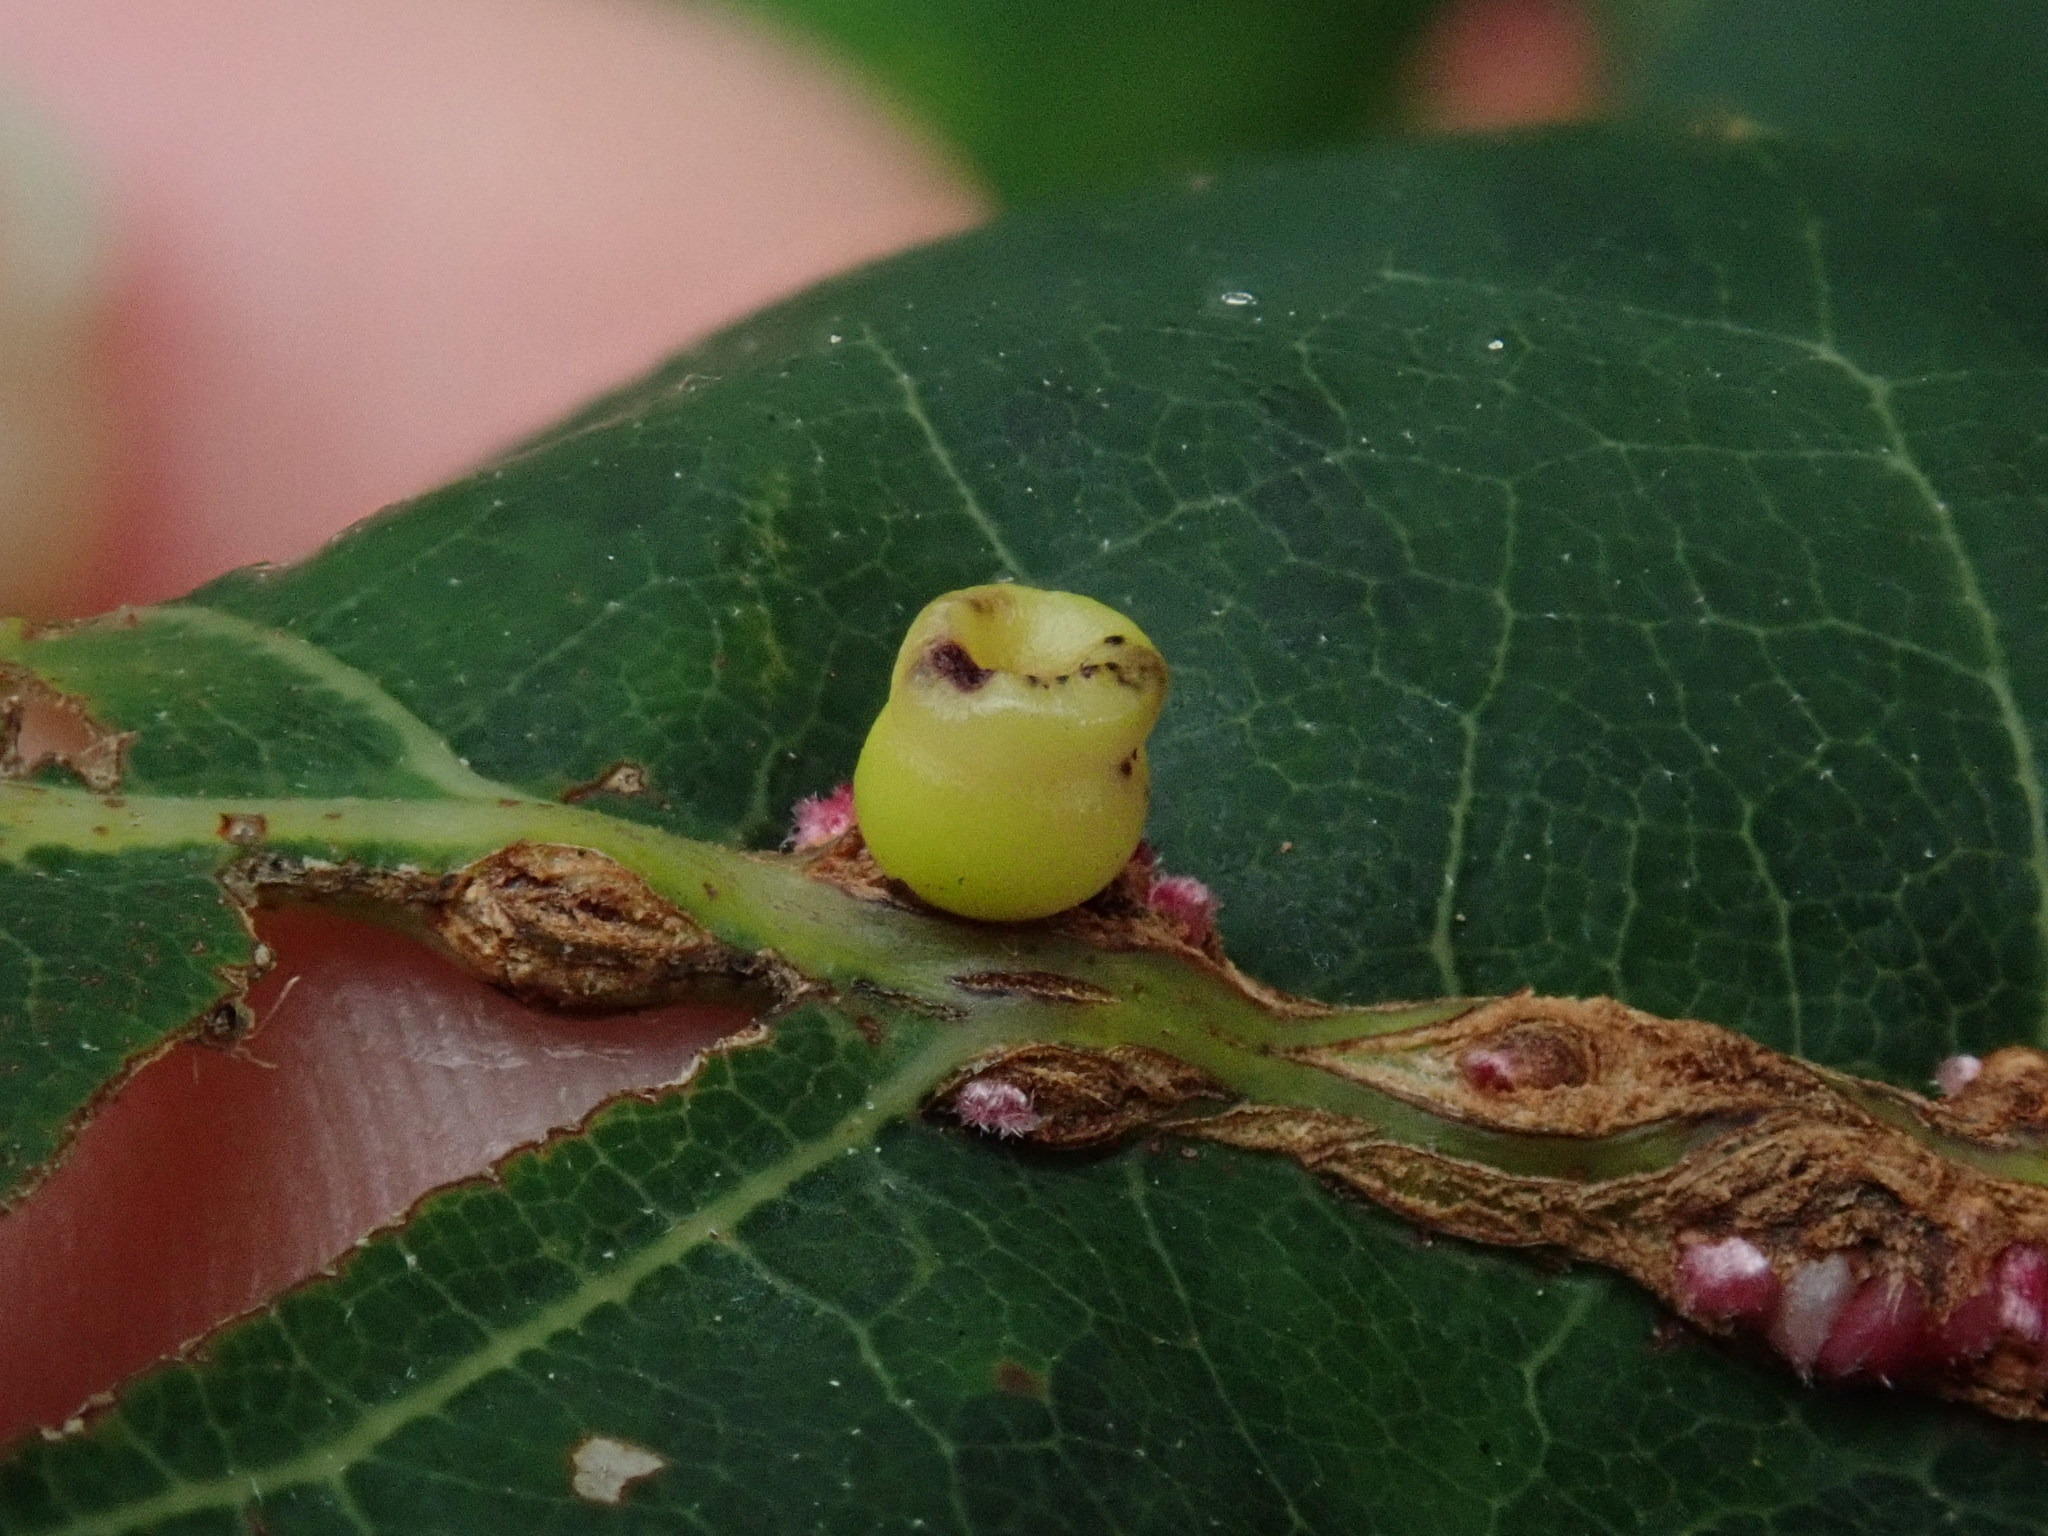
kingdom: Animalia
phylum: Arthropoda
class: Insecta
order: Hymenoptera
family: Cynipidae
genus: Kokkocynips
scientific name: Kokkocynips rileyi
